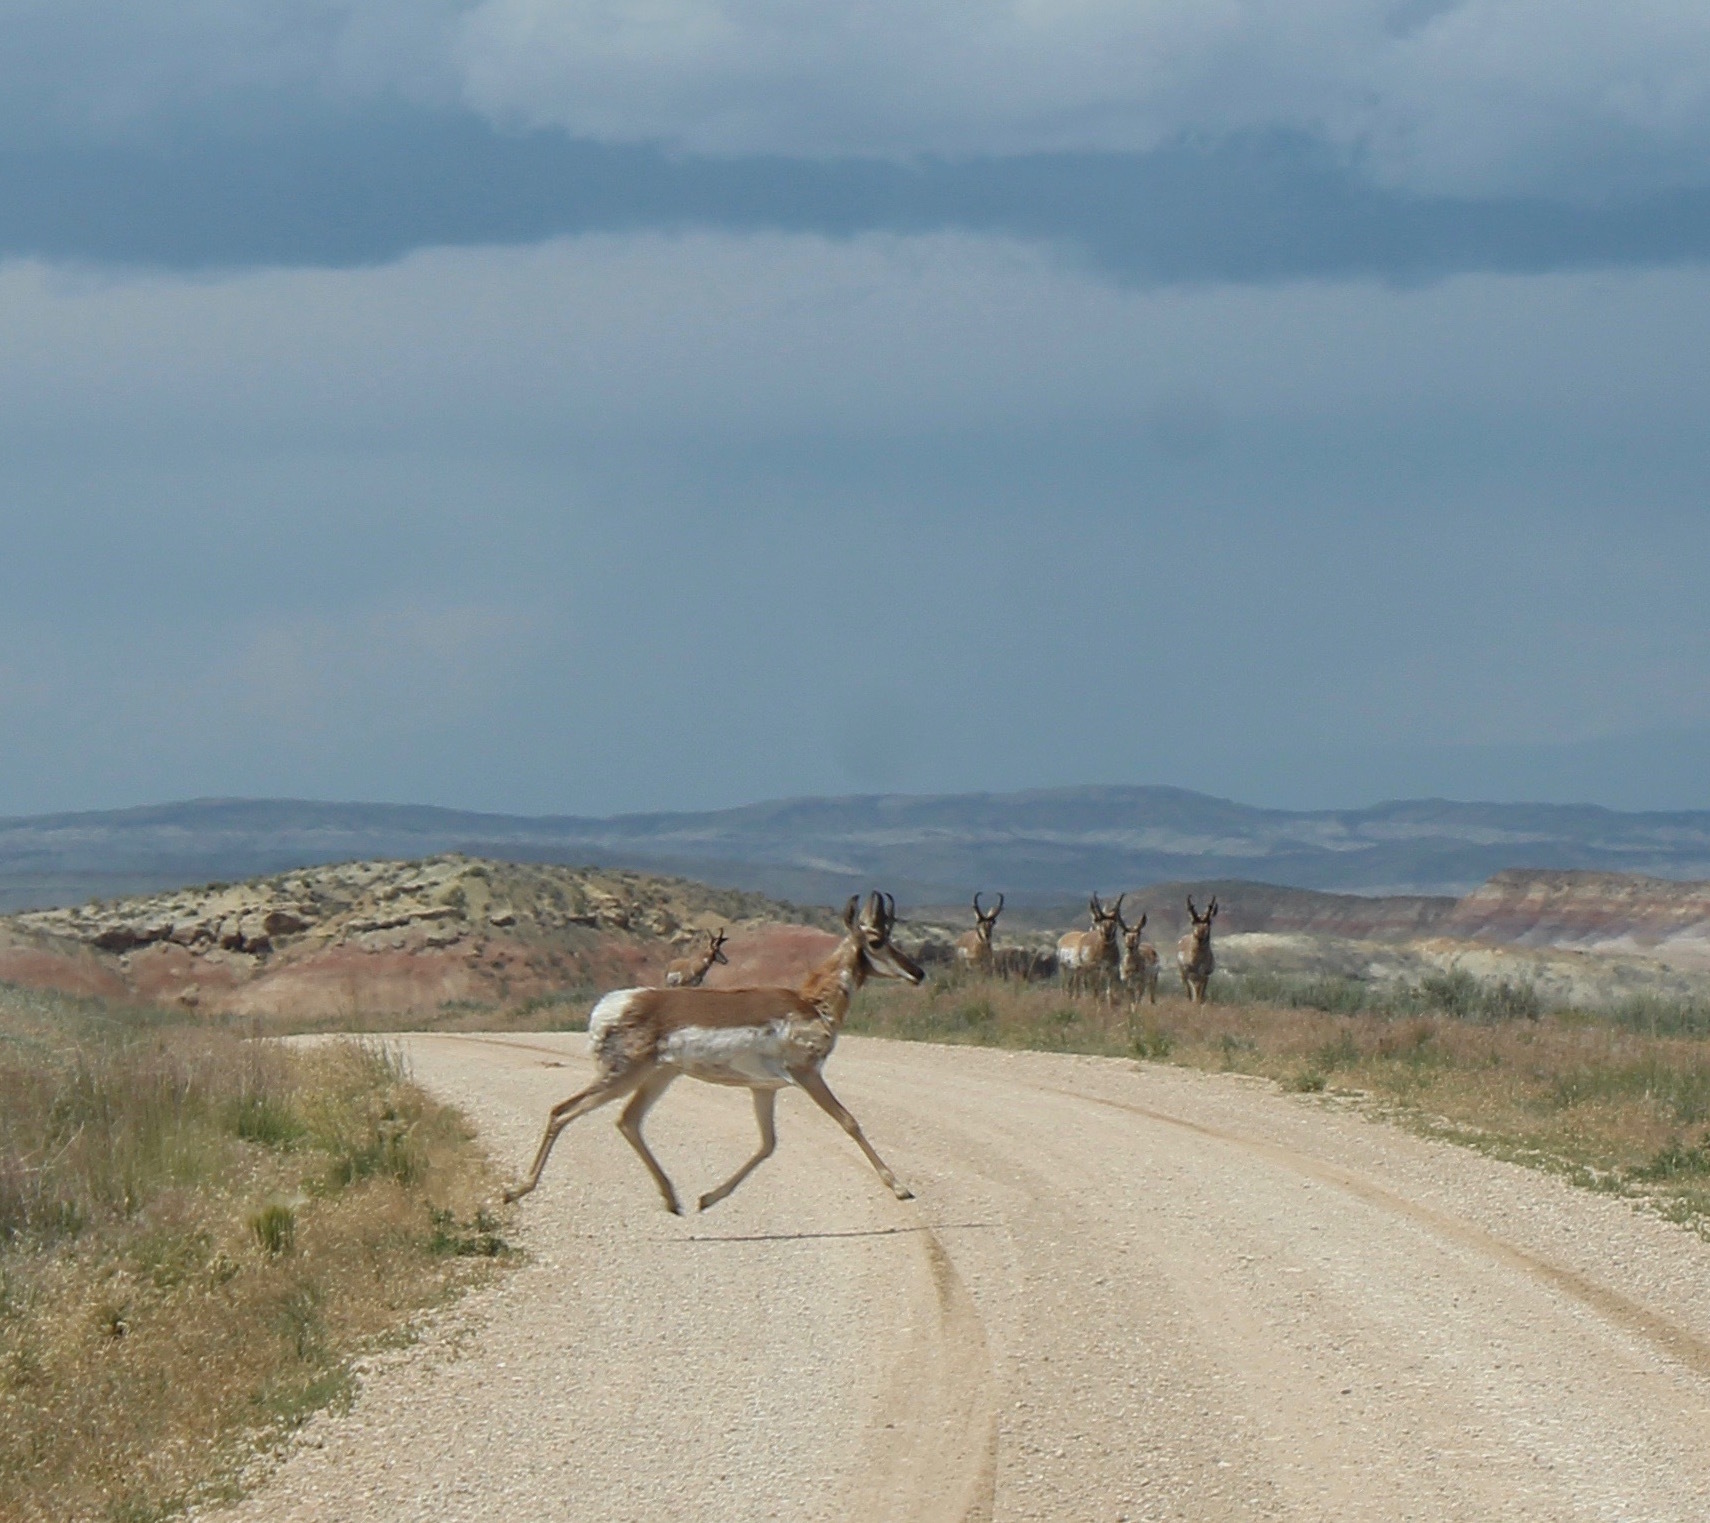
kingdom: Animalia
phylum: Chordata
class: Mammalia
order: Artiodactyla
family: Antilocapridae
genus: Antilocapra
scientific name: Antilocapra americana
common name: Pronghorn
